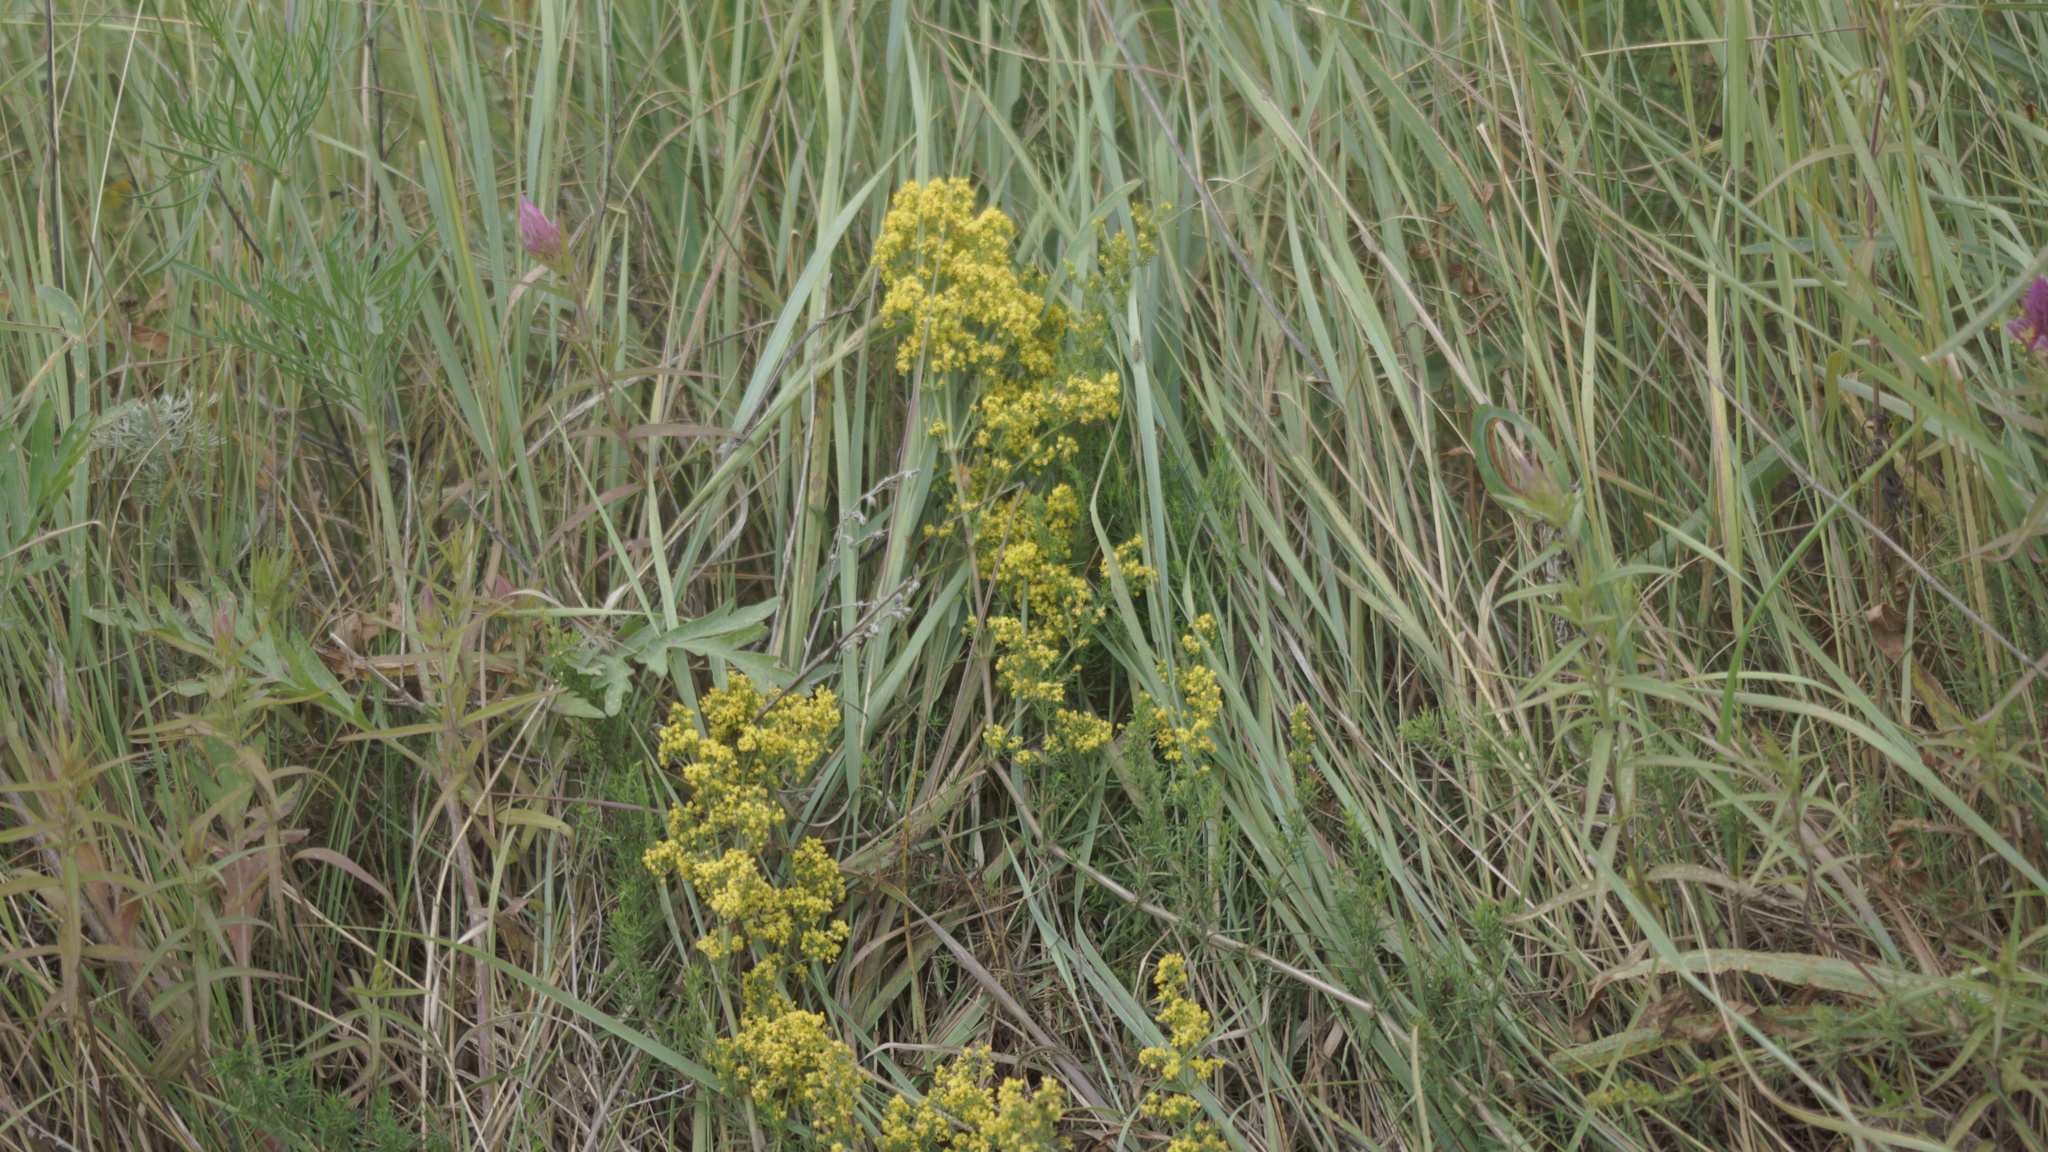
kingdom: Plantae
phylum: Tracheophyta
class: Magnoliopsida
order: Gentianales
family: Rubiaceae
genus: Galium
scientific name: Galium verum
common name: Lady's bedstraw
